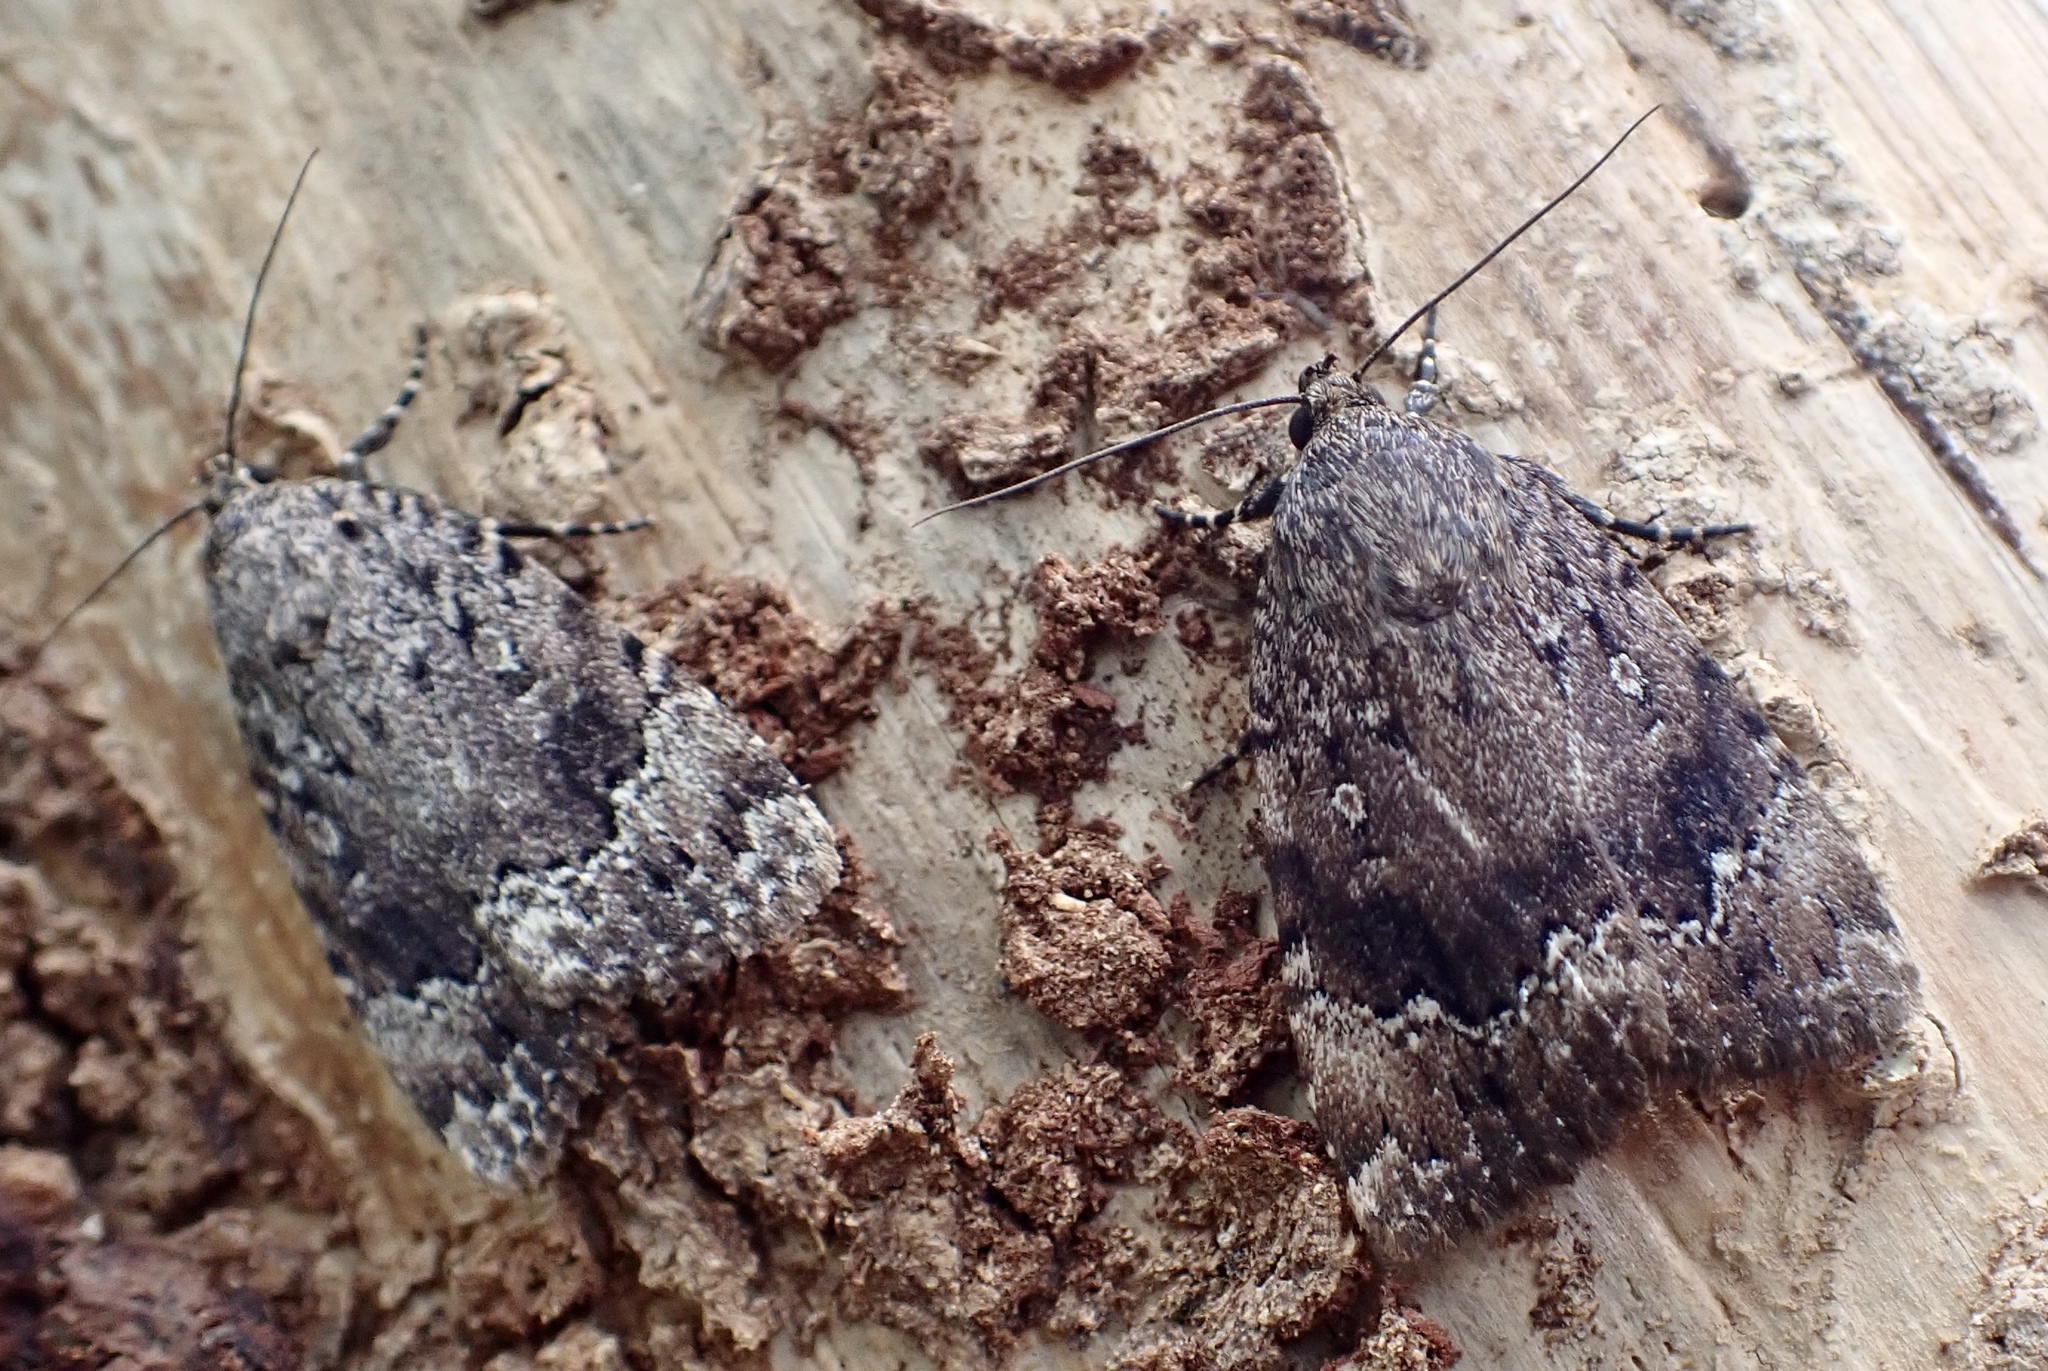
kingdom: Animalia
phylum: Arthropoda
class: Insecta
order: Lepidoptera
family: Noctuidae
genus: Amphipyra
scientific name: Amphipyra pyramidoides
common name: American copper underwing
